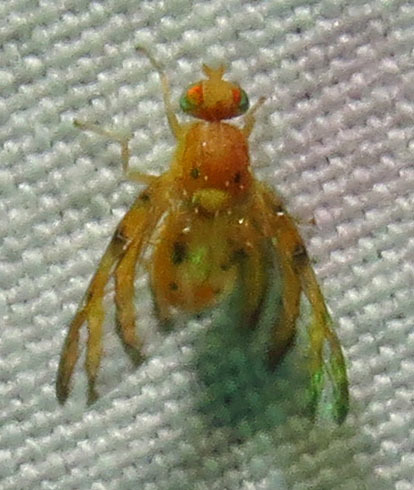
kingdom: Animalia
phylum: Arthropoda
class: Insecta
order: Diptera
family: Tephritidae
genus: Tomoplagia
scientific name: Tomoplagia obliqua
